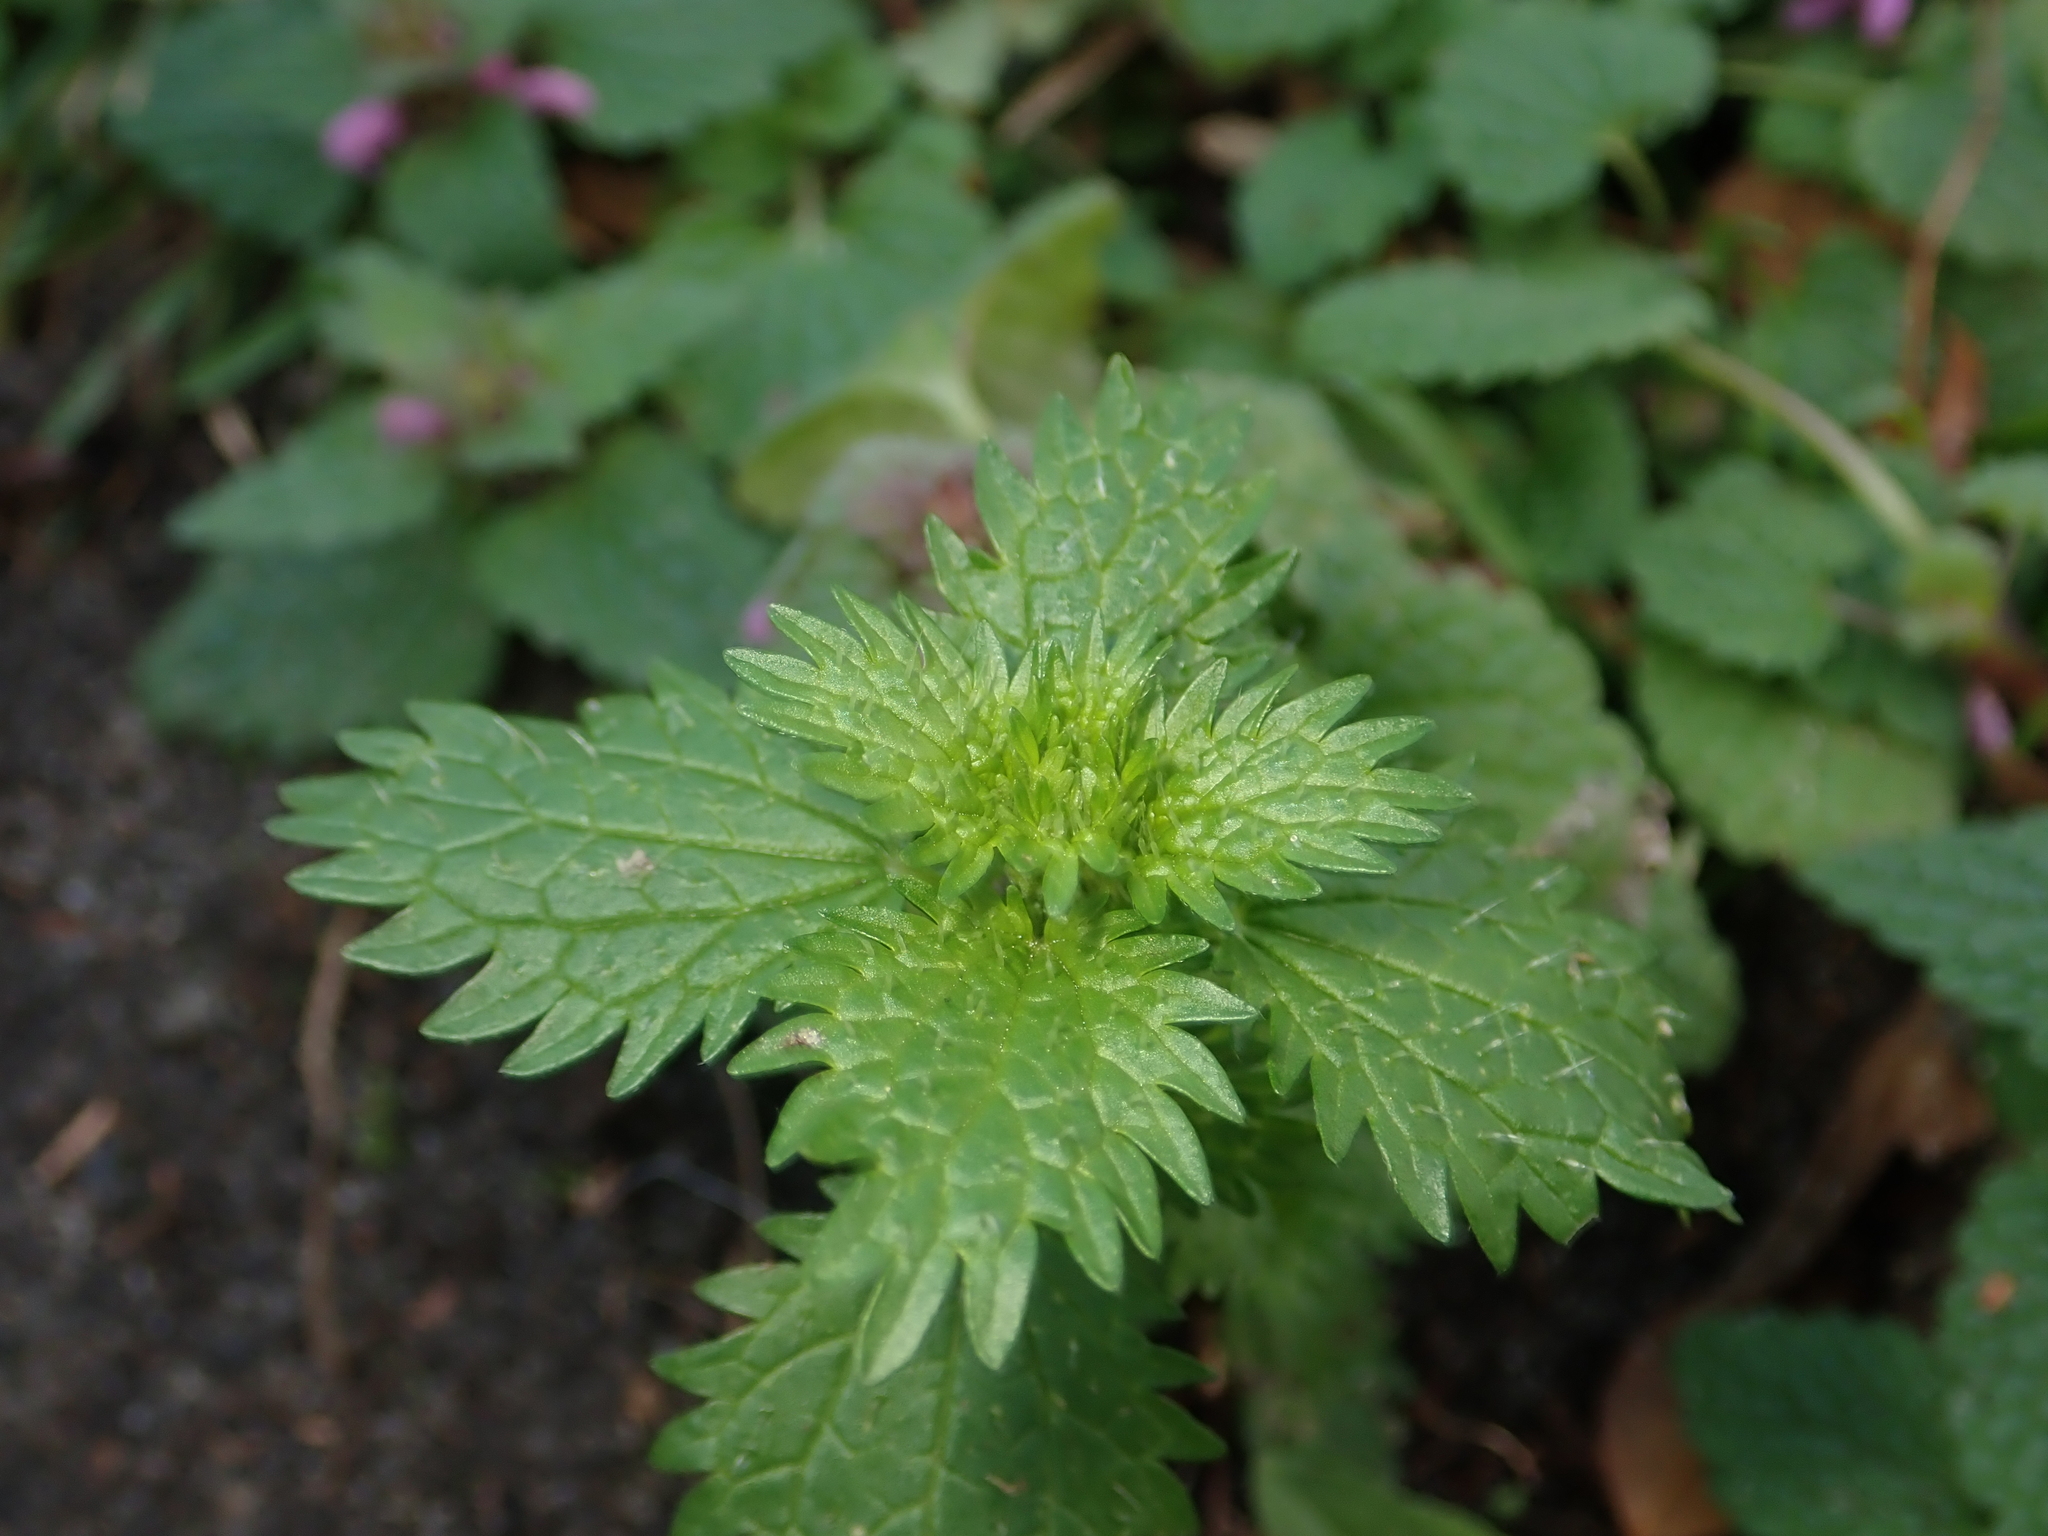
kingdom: Plantae
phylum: Tracheophyta
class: Magnoliopsida
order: Rosales
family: Urticaceae
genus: Urtica
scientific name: Urtica urens
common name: Dwarf nettle
